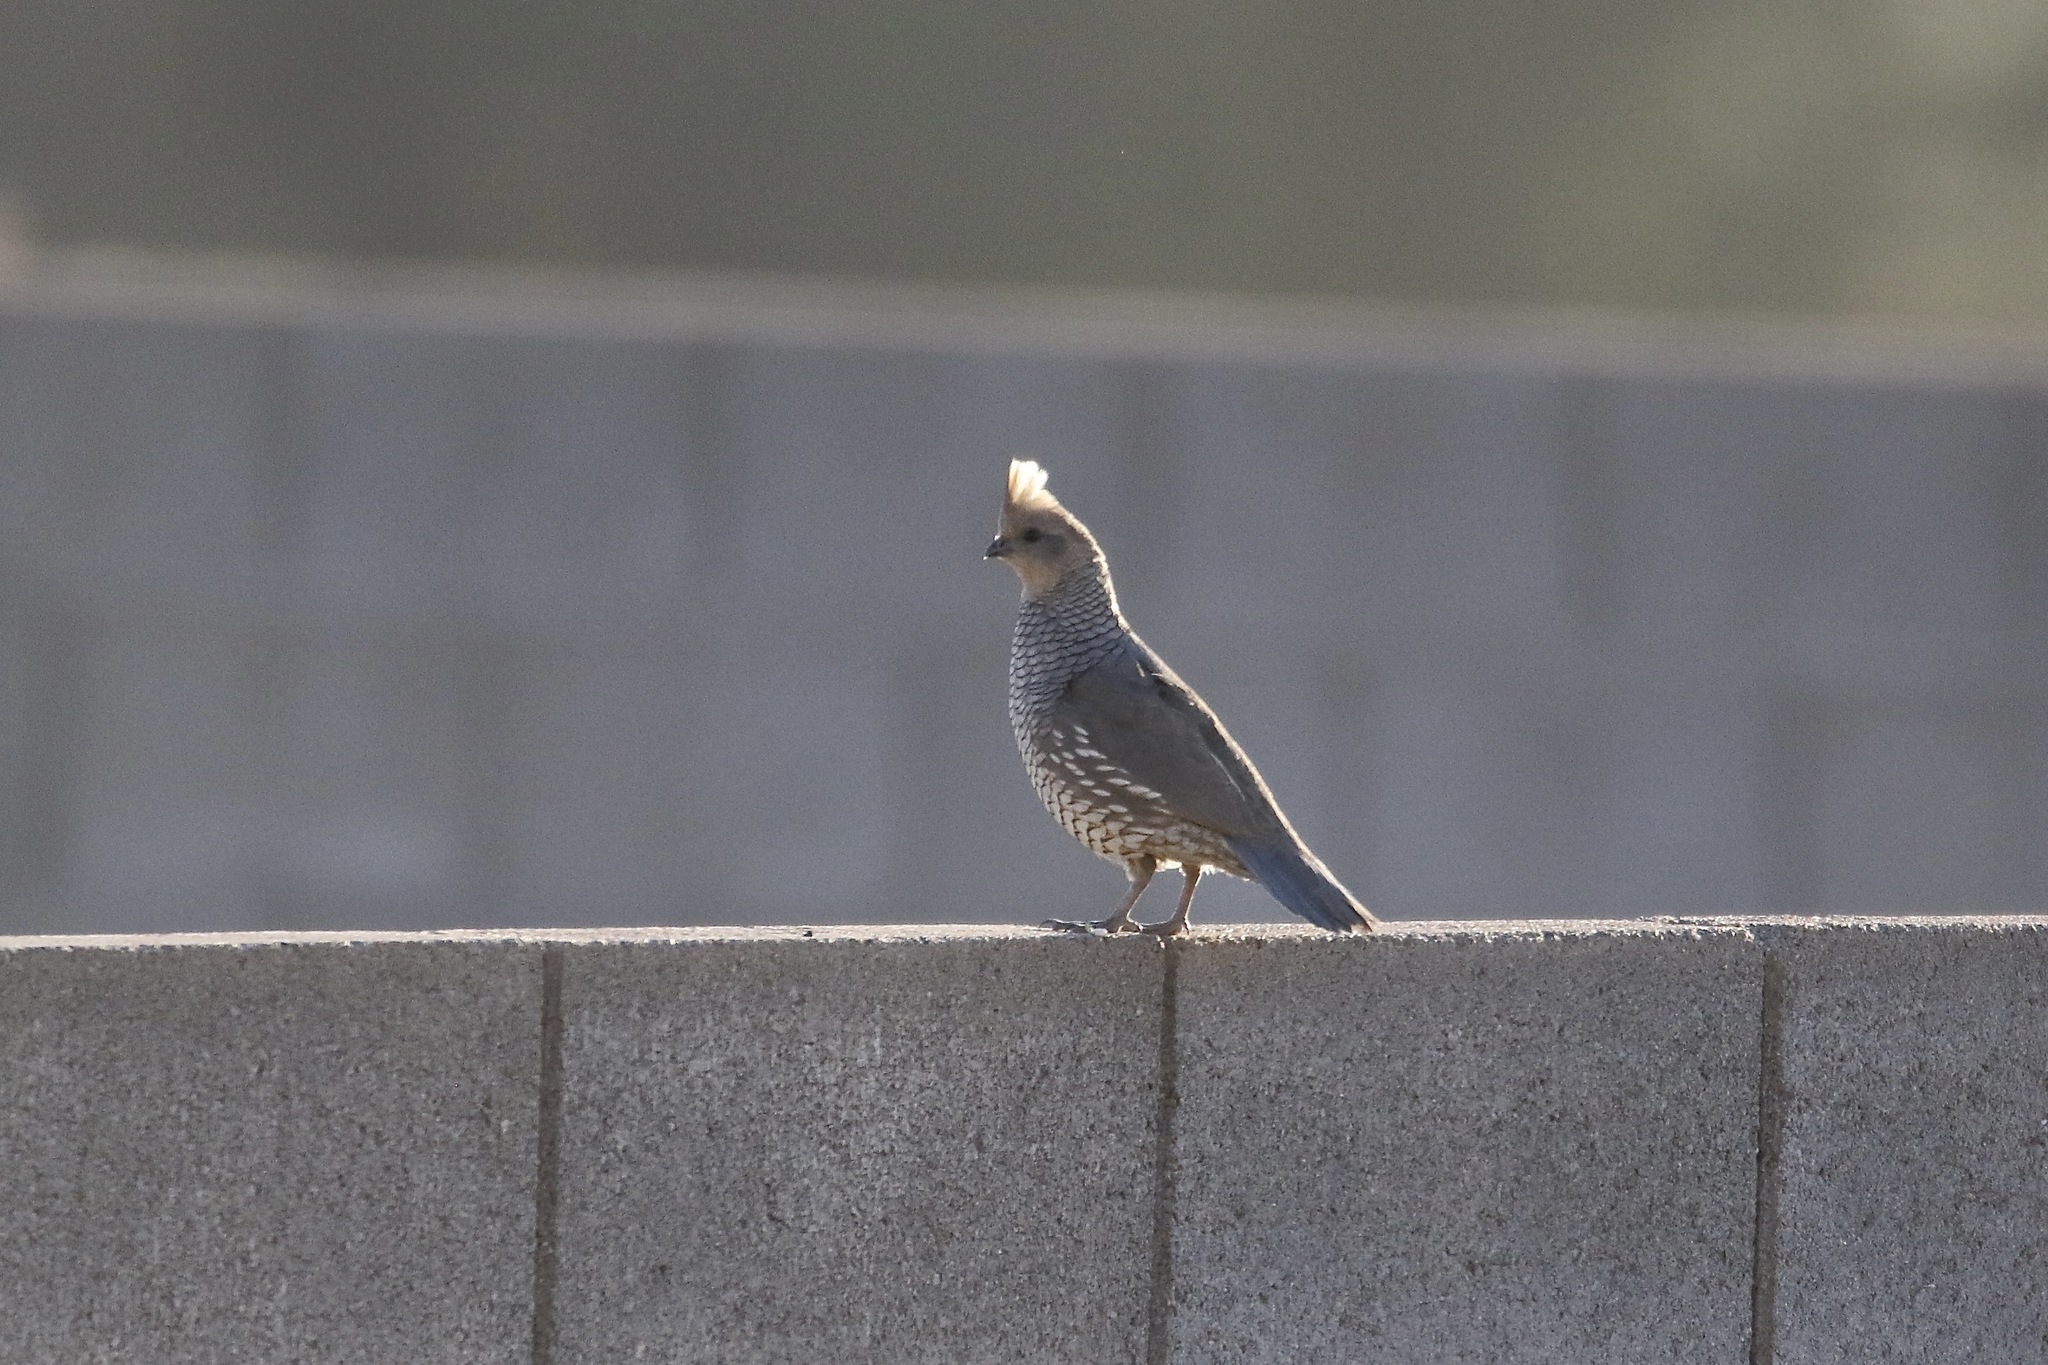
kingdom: Animalia
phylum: Chordata
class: Aves
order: Galliformes
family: Odontophoridae
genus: Callipepla
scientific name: Callipepla squamata
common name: Scaled quail
